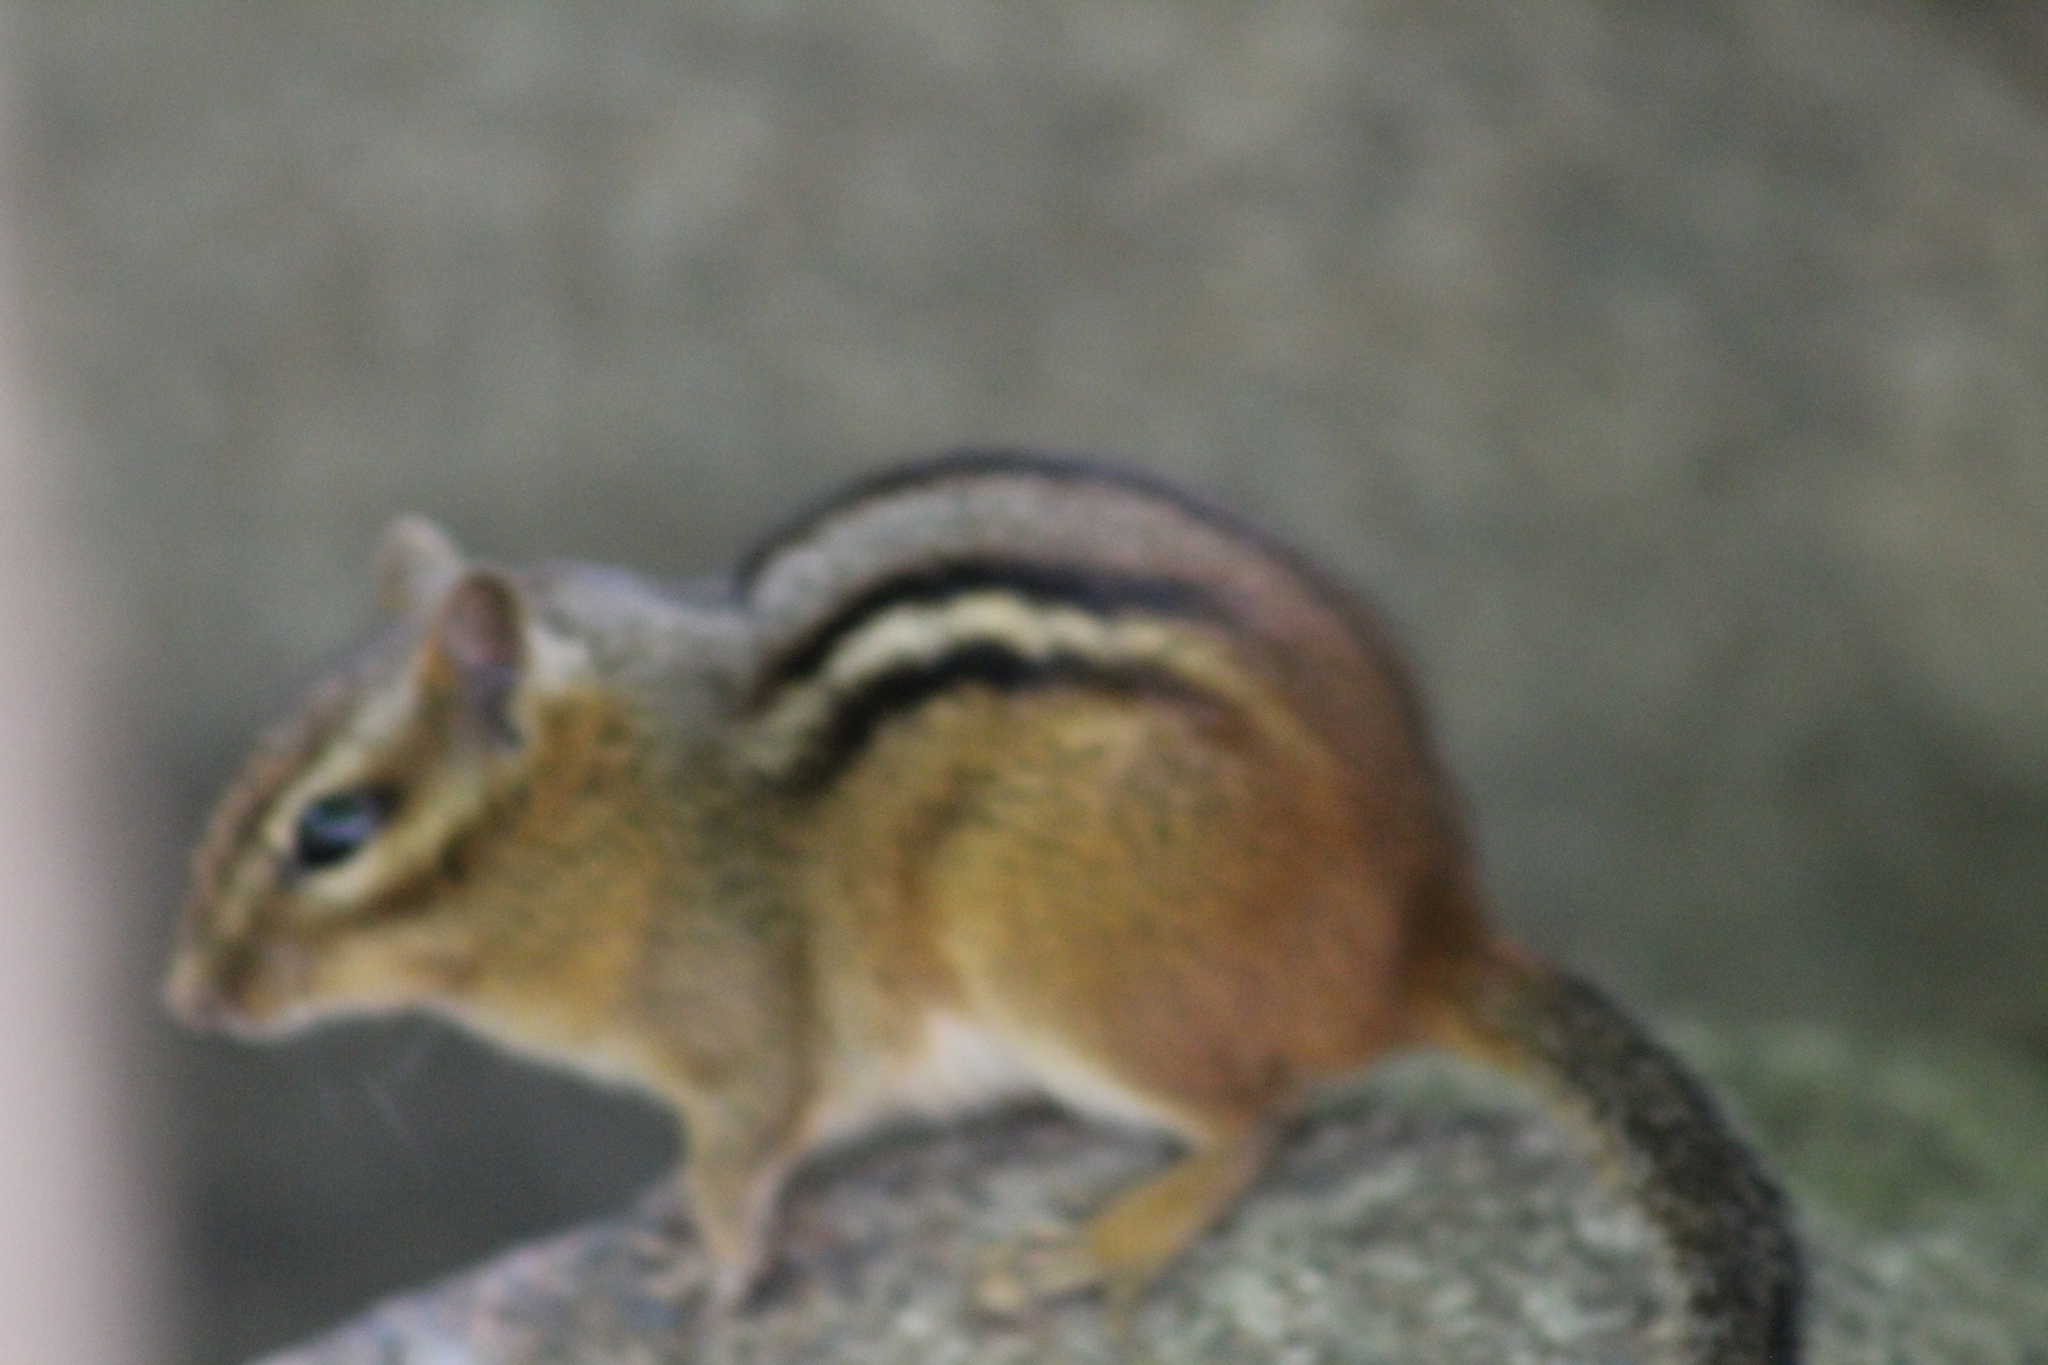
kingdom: Animalia
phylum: Chordata
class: Mammalia
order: Rodentia
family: Sciuridae
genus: Tamias
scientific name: Tamias striatus
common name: Eastern chipmunk
